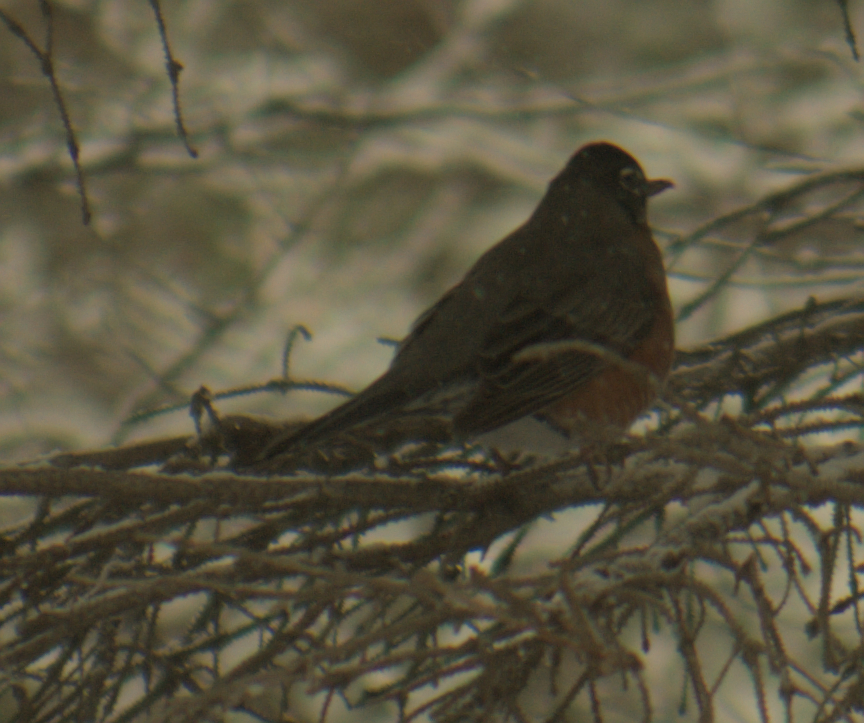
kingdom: Animalia
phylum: Chordata
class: Aves
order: Passeriformes
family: Turdidae
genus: Turdus
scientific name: Turdus migratorius
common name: American robin
